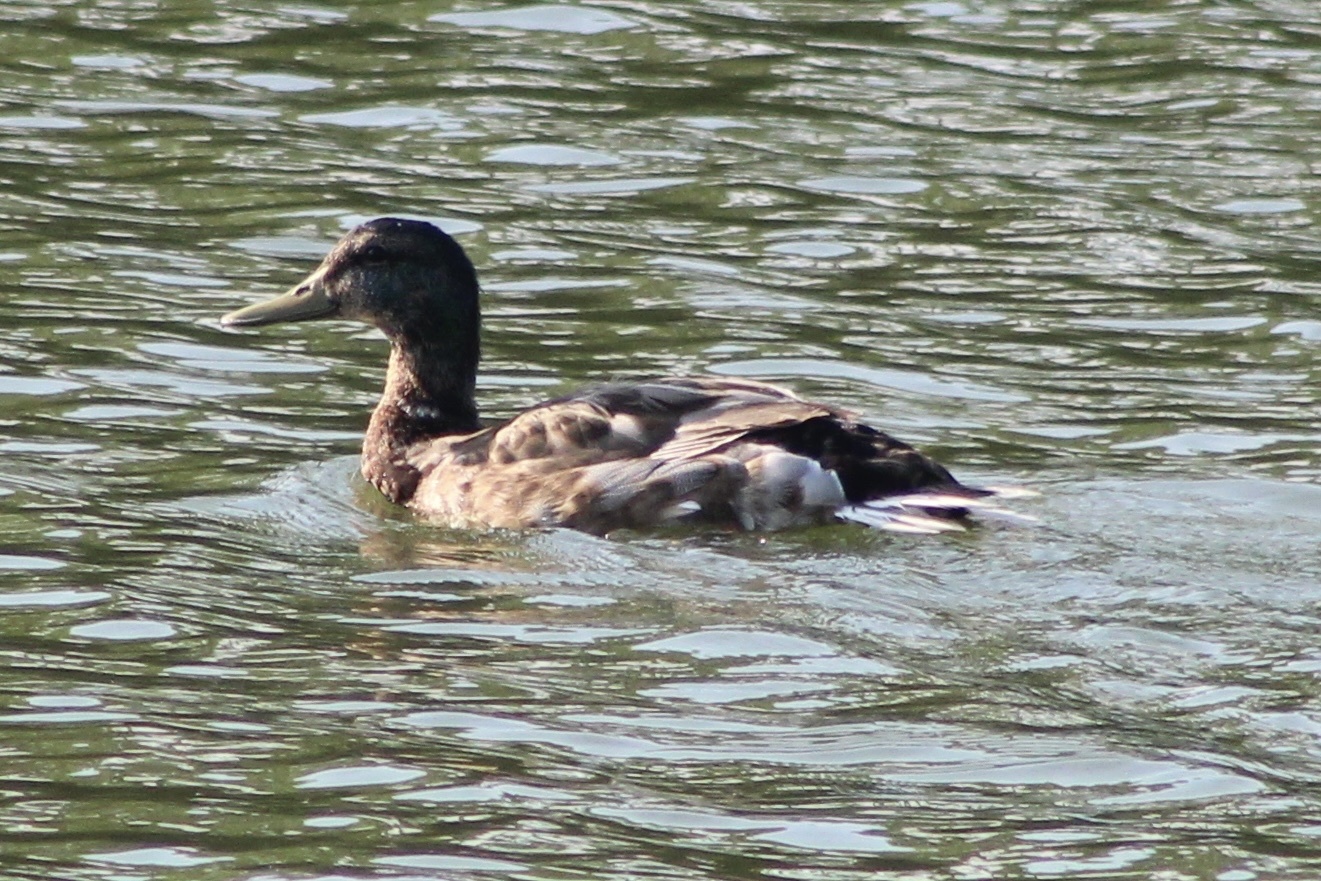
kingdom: Animalia
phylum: Chordata
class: Aves
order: Anseriformes
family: Anatidae
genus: Anas
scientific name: Anas platyrhynchos
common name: Mallard
